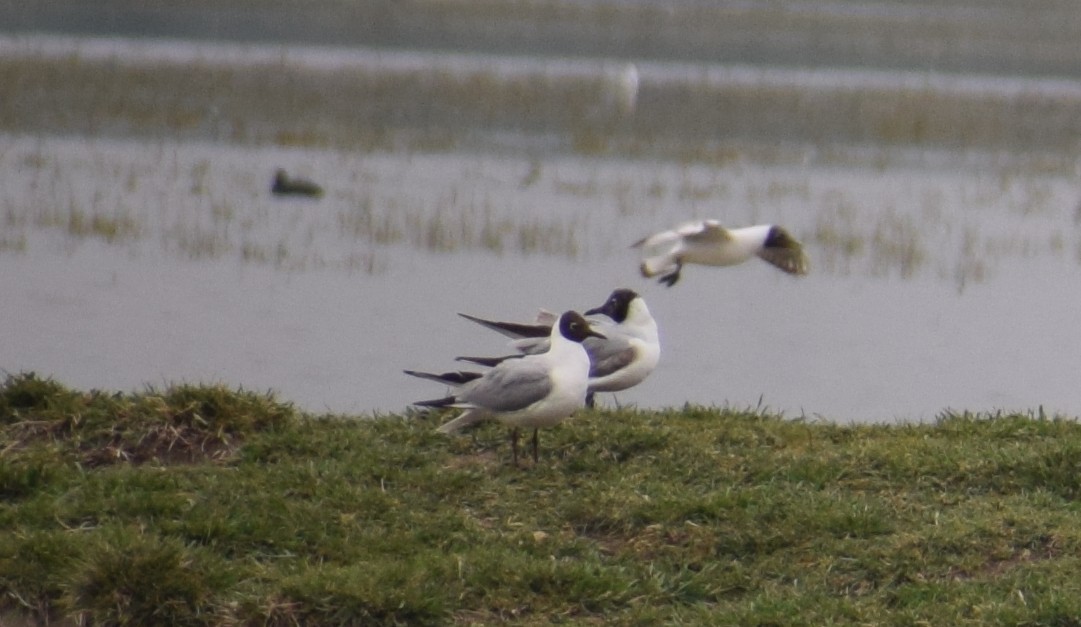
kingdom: Animalia
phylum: Chordata
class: Aves
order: Charadriiformes
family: Laridae
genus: Chroicocephalus
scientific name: Chroicocephalus ridibundus
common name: Black-headed gull
